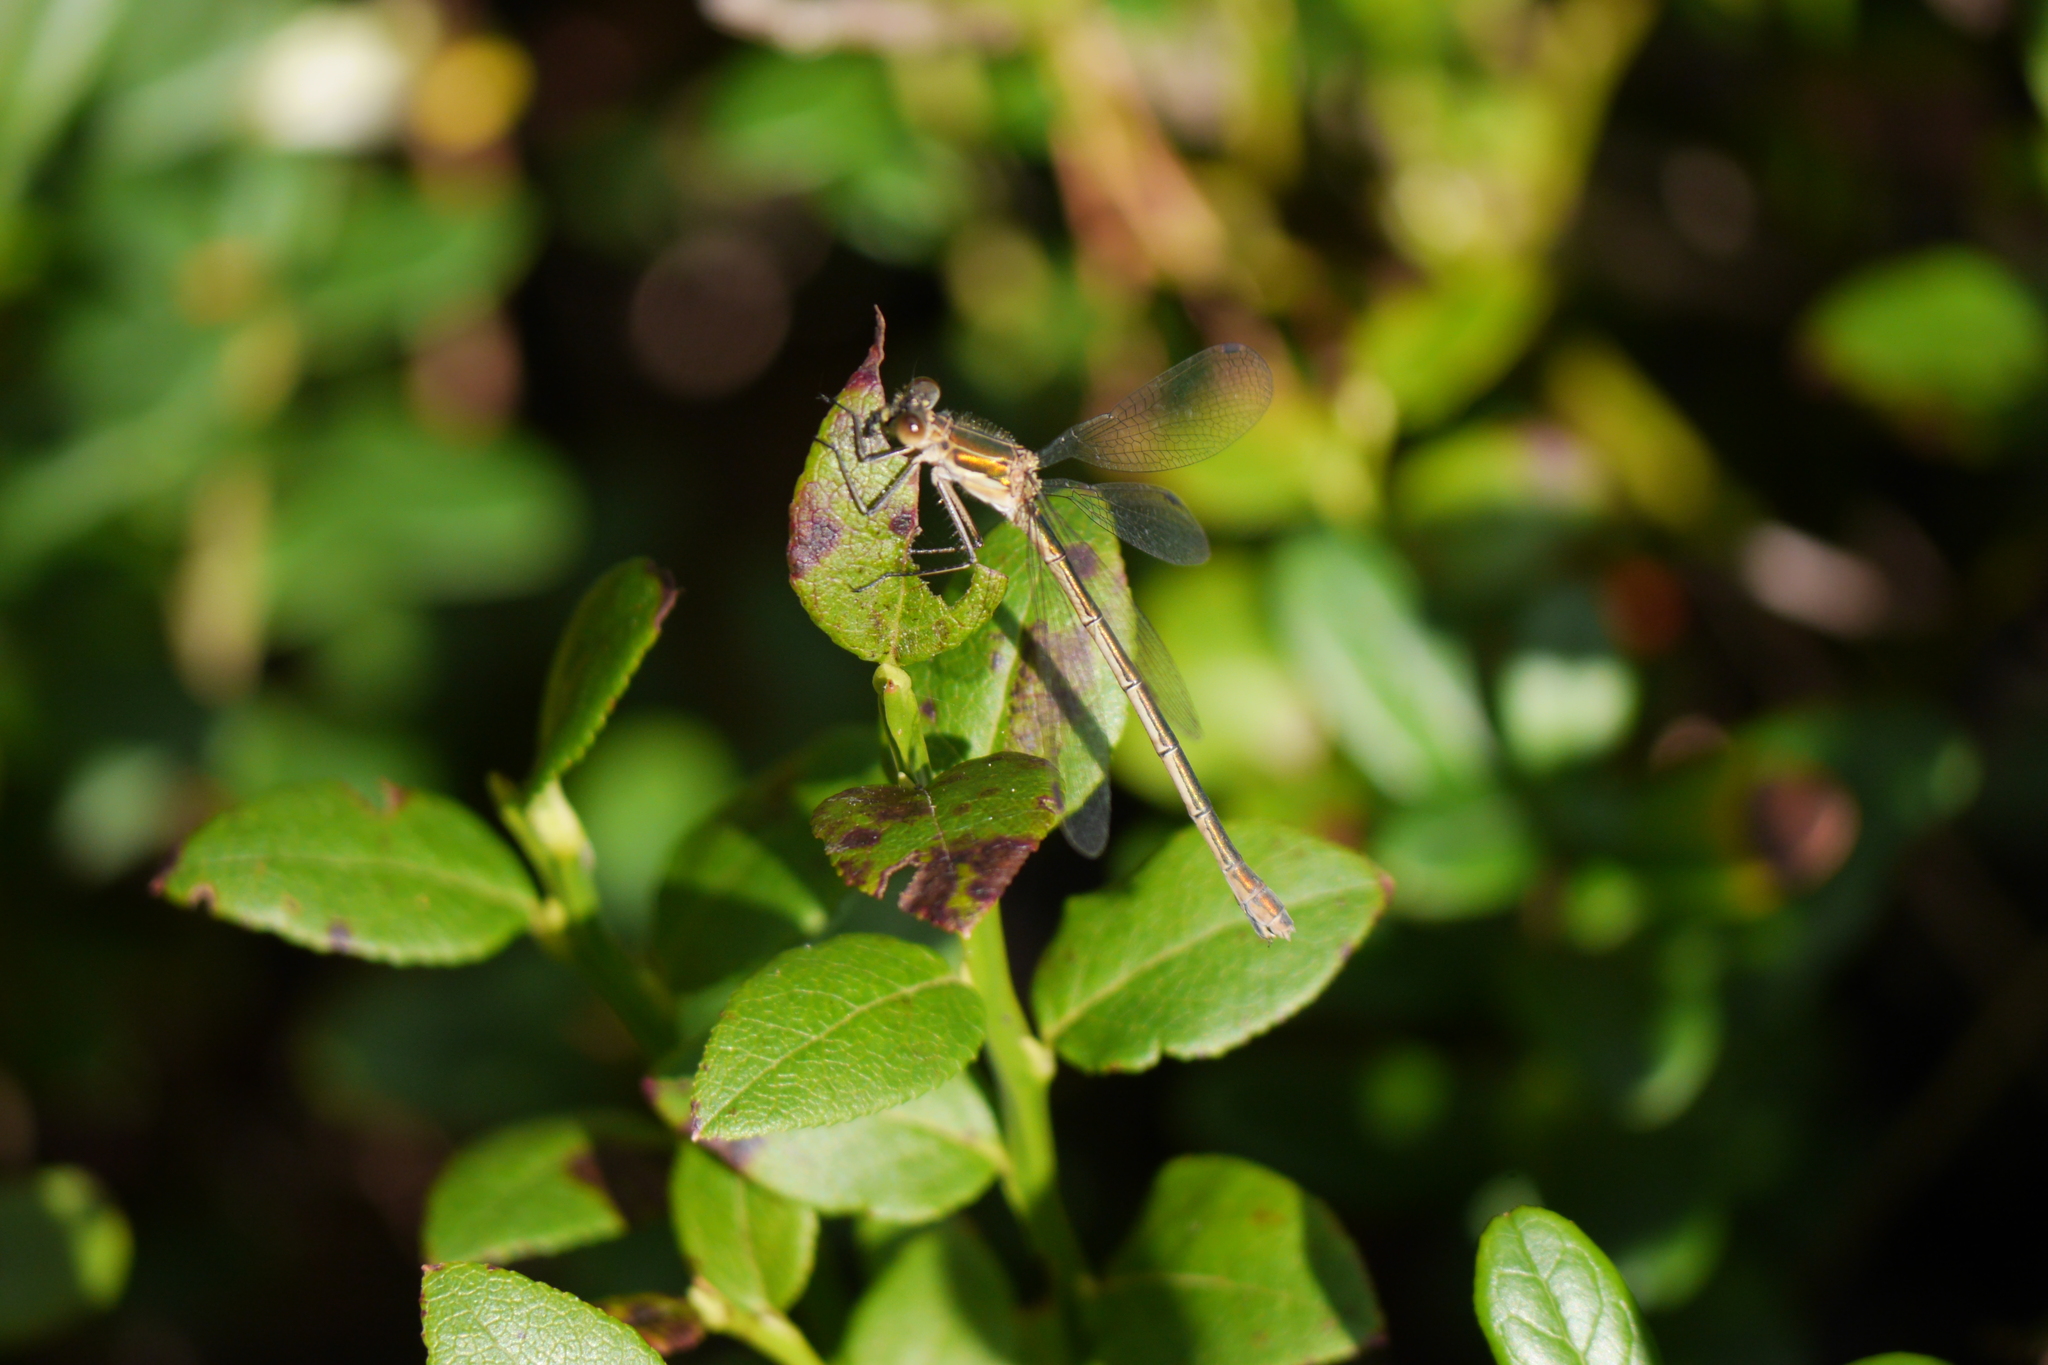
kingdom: Animalia
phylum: Arthropoda
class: Insecta
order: Odonata
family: Lestidae
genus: Lestes
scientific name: Lestes sponsa
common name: Common spreadwing
